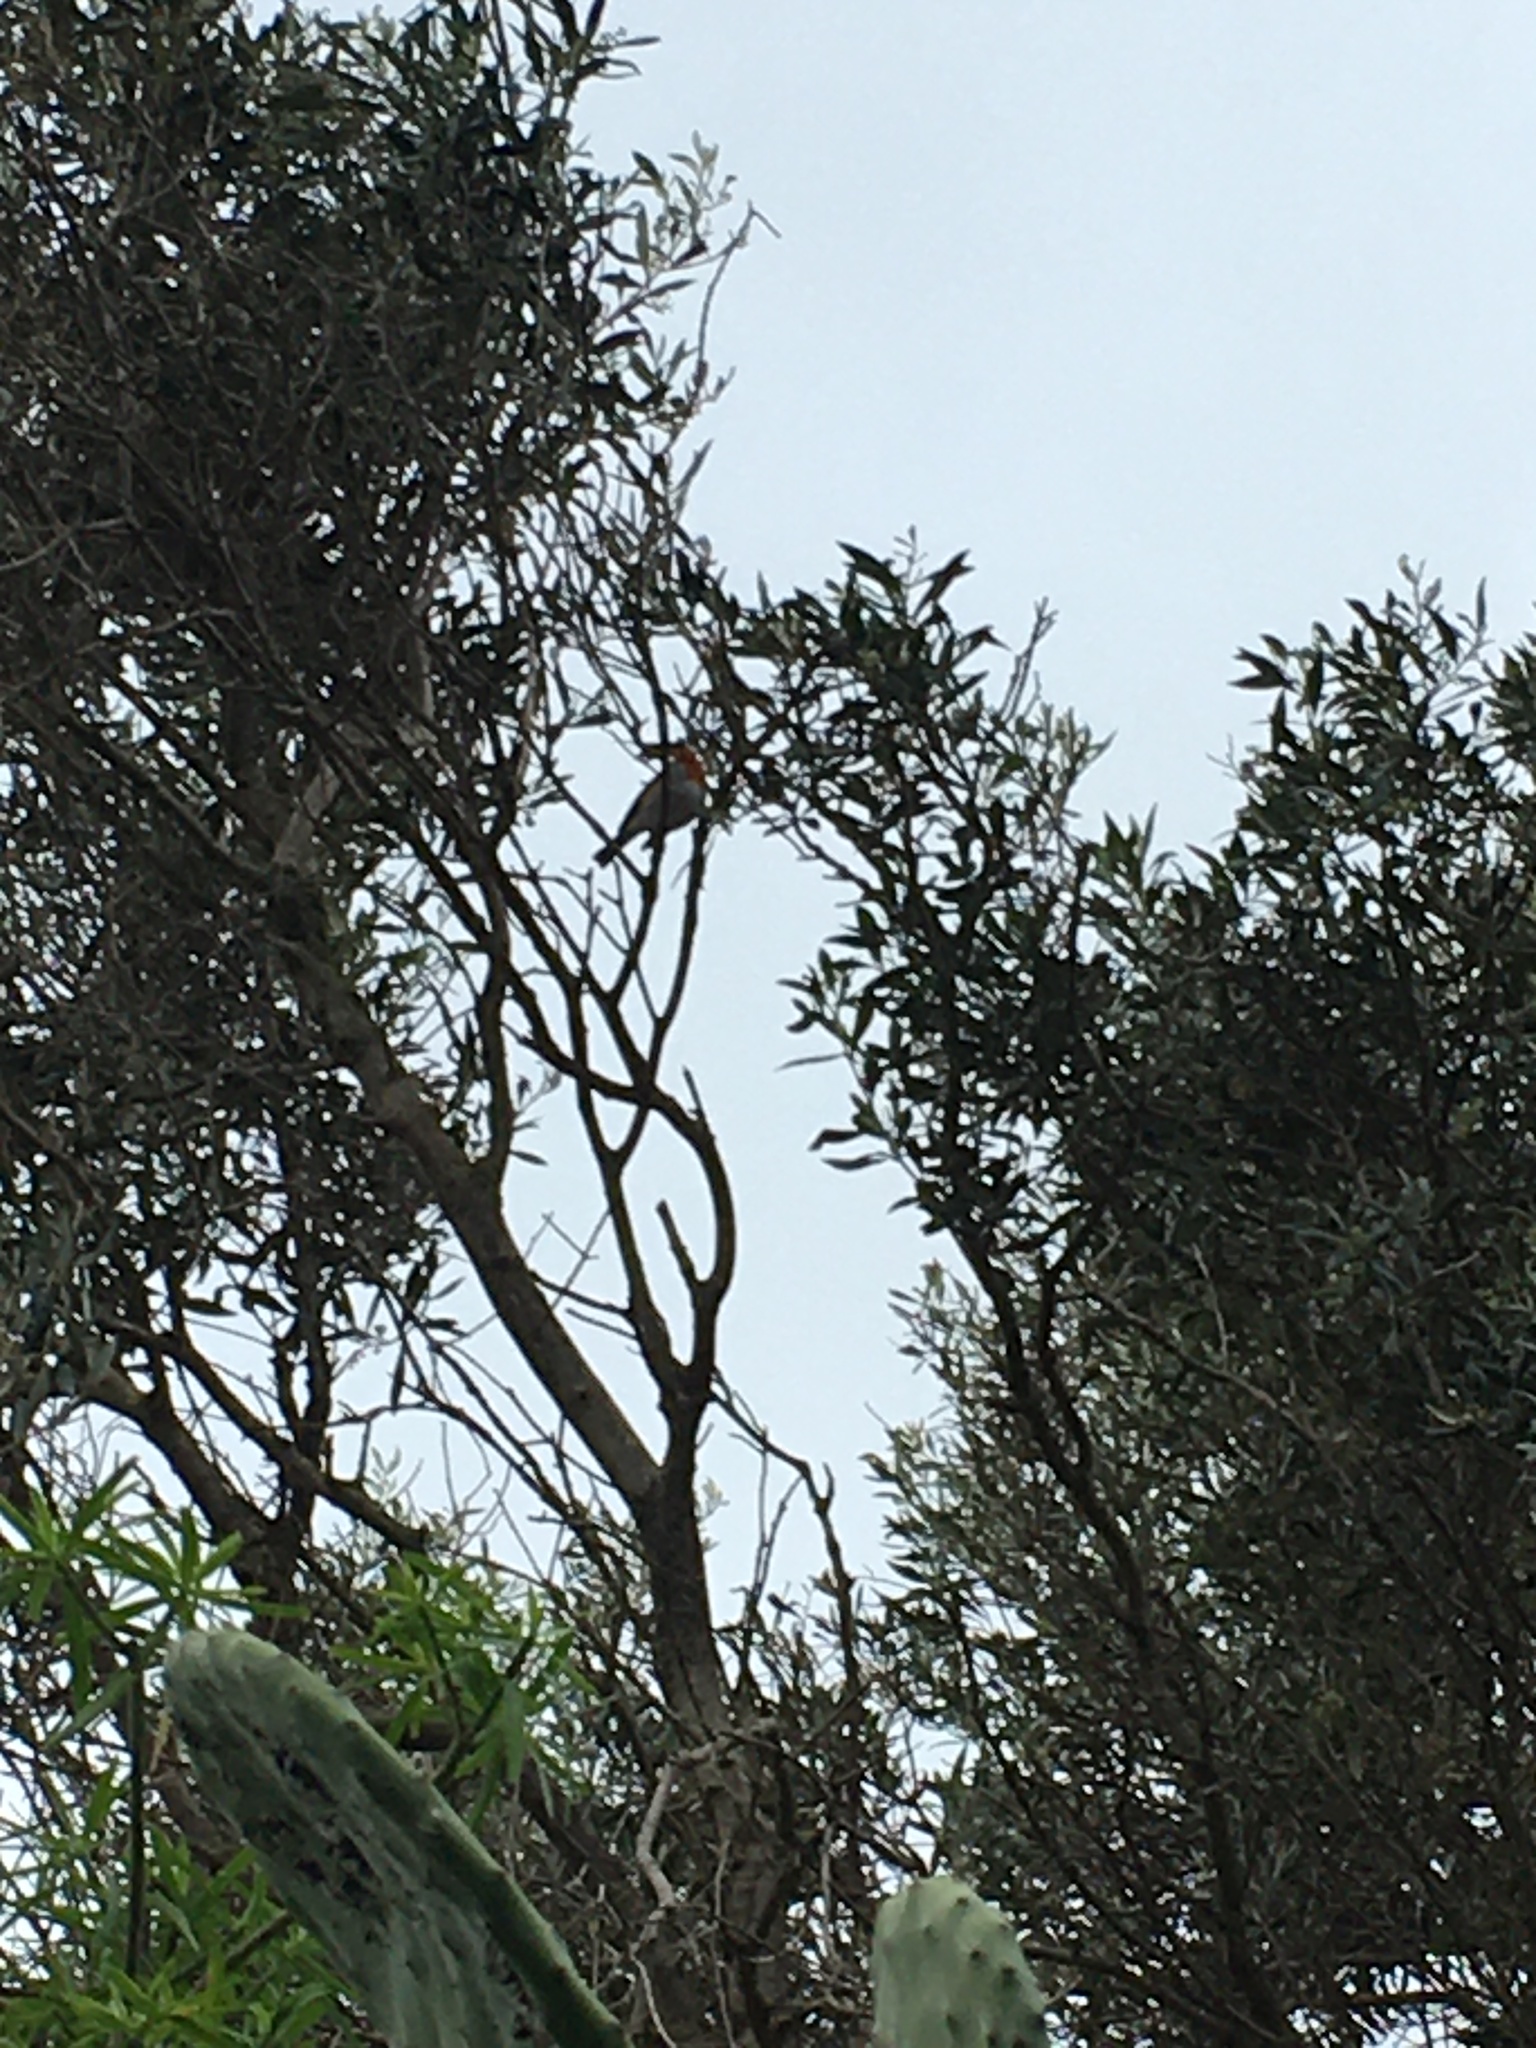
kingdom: Animalia
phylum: Chordata
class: Aves
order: Passeriformes
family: Muscicapidae
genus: Erithacus
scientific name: Erithacus rubecula
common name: European robin
